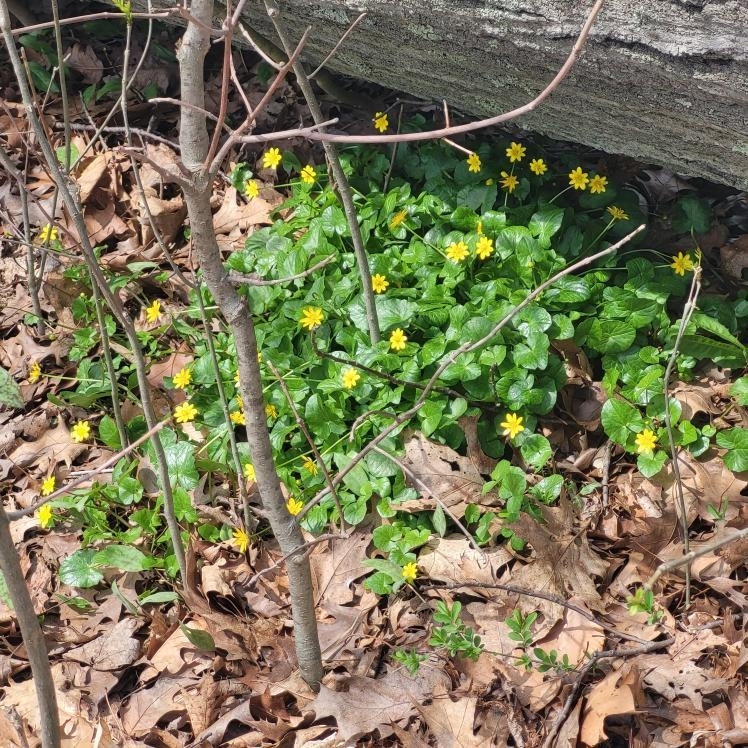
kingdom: Plantae
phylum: Tracheophyta
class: Magnoliopsida
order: Ranunculales
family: Ranunculaceae
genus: Ficaria
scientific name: Ficaria verna
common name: Lesser celandine
